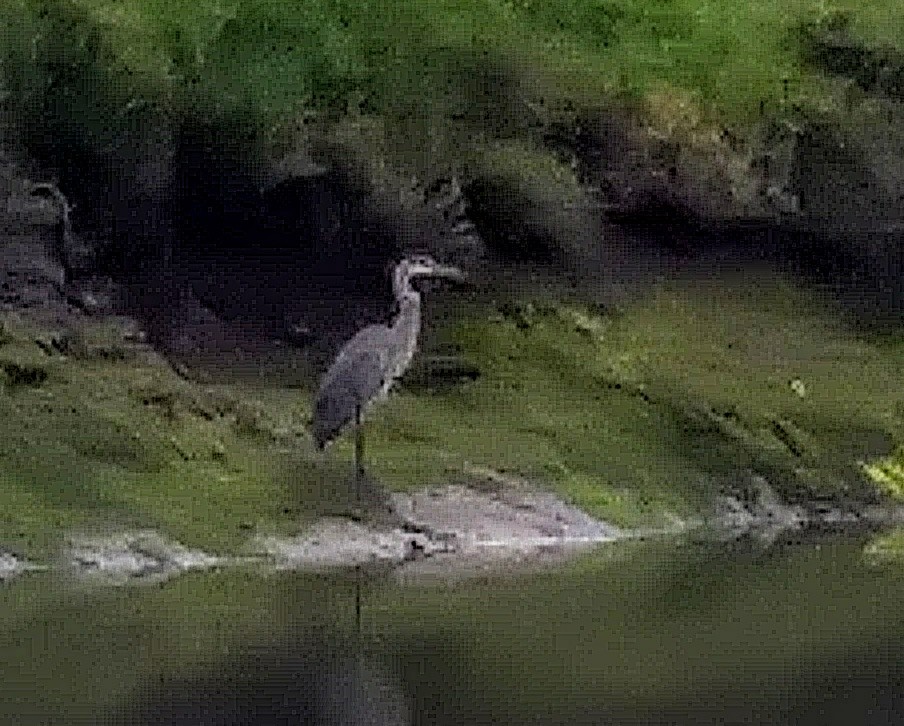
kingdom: Animalia
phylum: Chordata
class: Aves
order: Pelecaniformes
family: Ardeidae
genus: Ardea
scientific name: Ardea herodias
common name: Great blue heron
